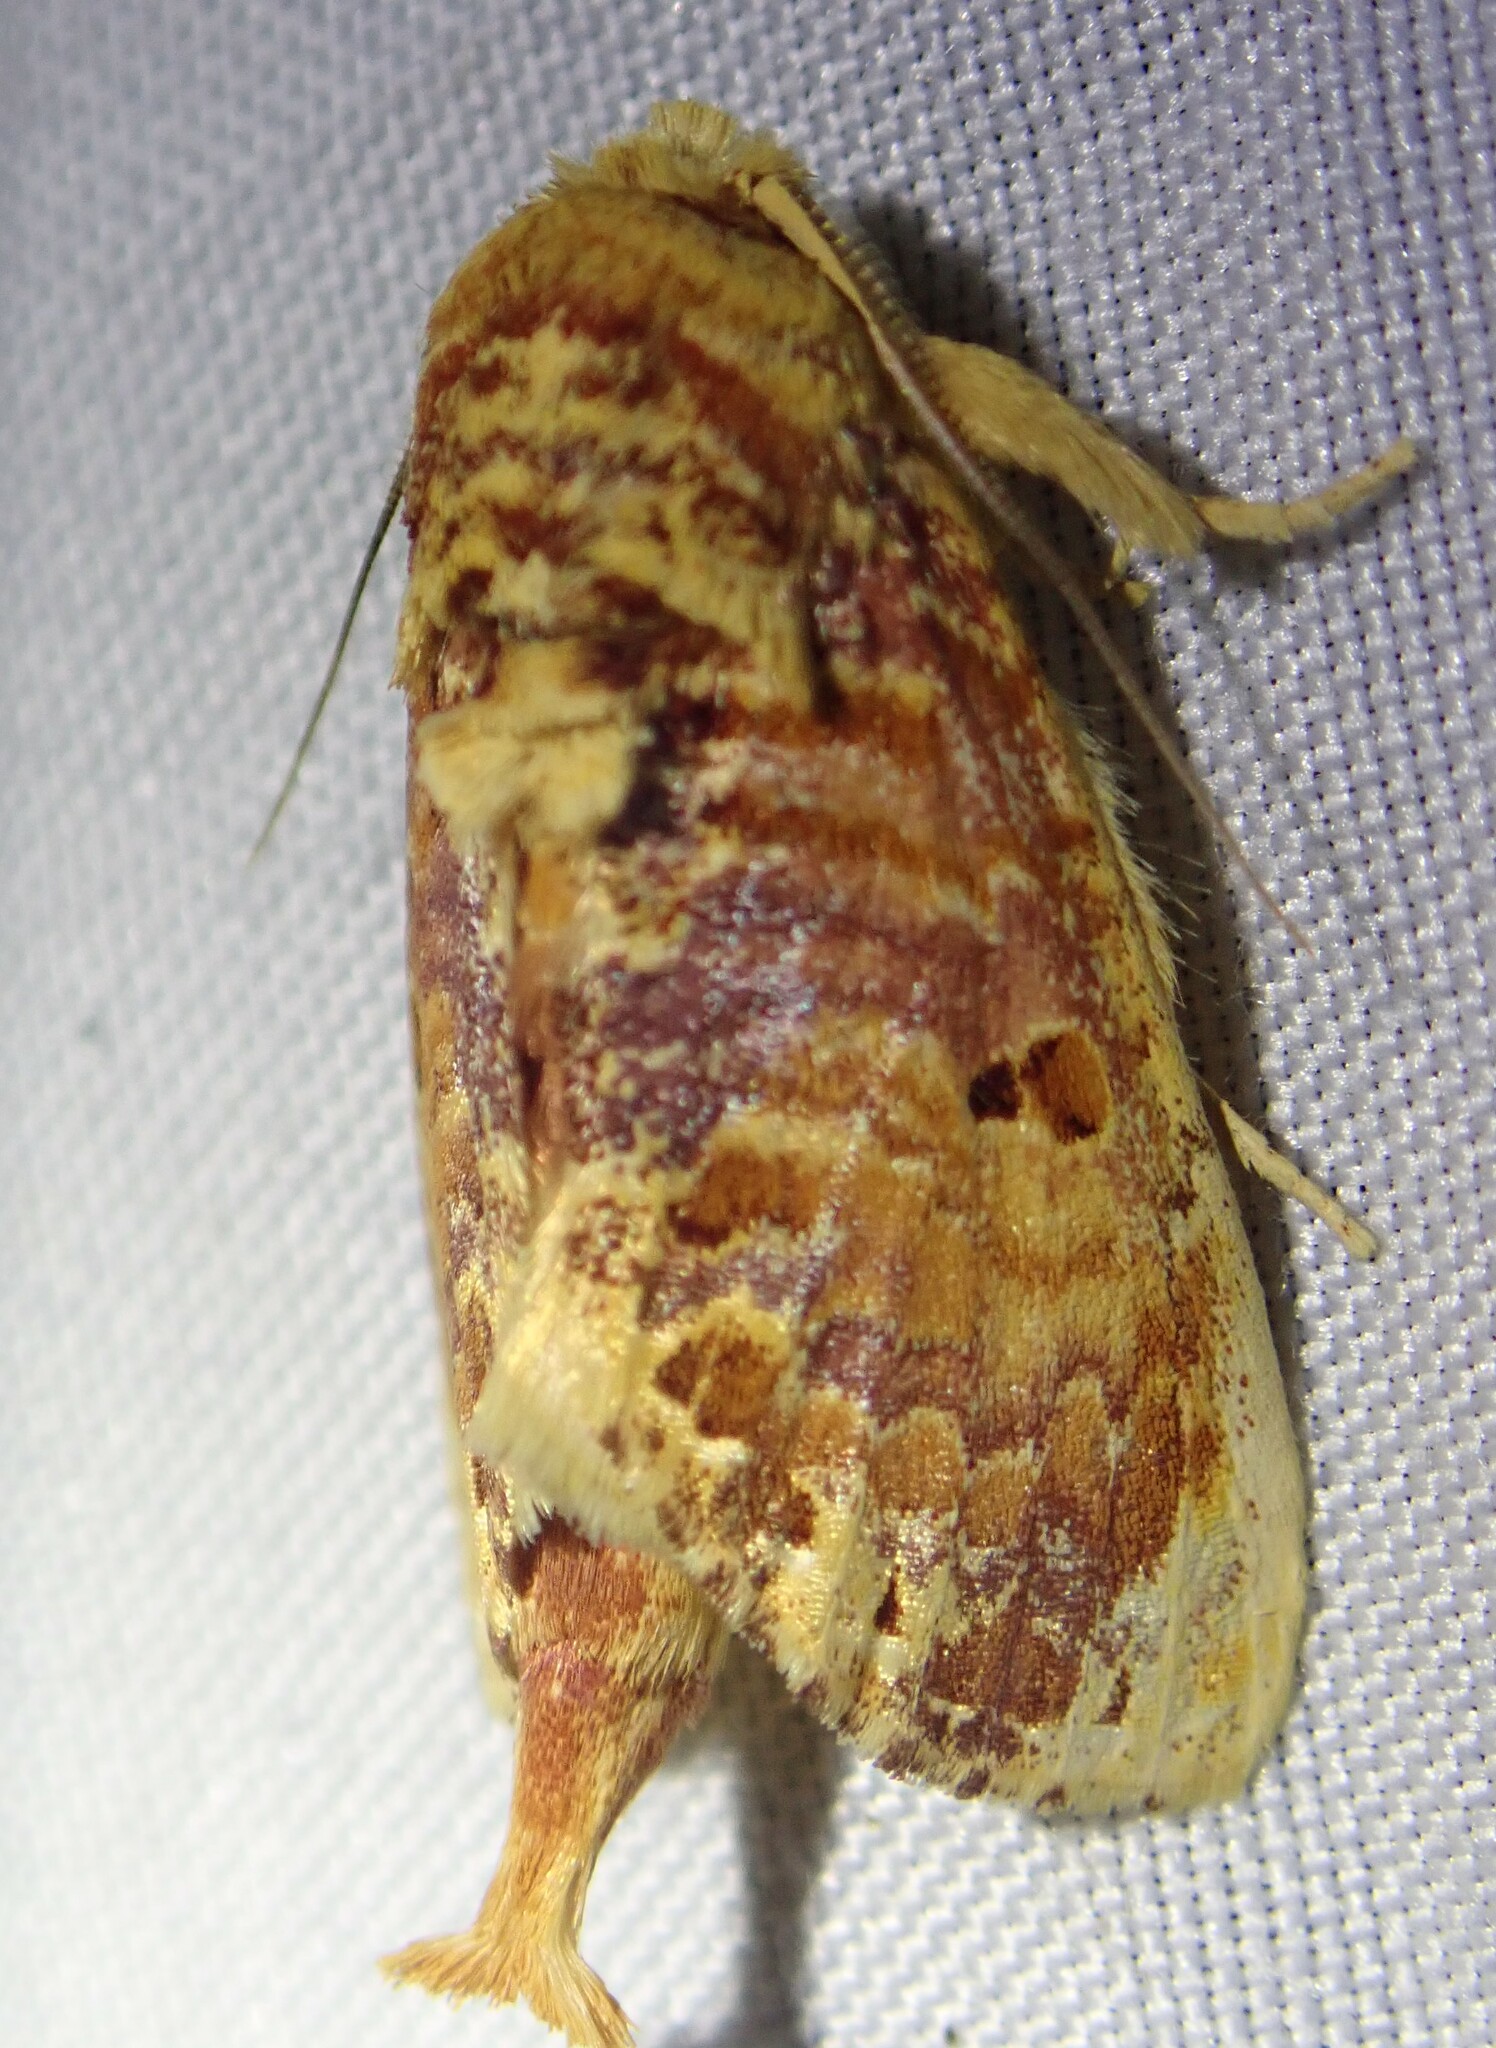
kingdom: Animalia
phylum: Arthropoda
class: Insecta
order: Lepidoptera
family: Notodontidae
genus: Magava
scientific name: Magava multilinea
